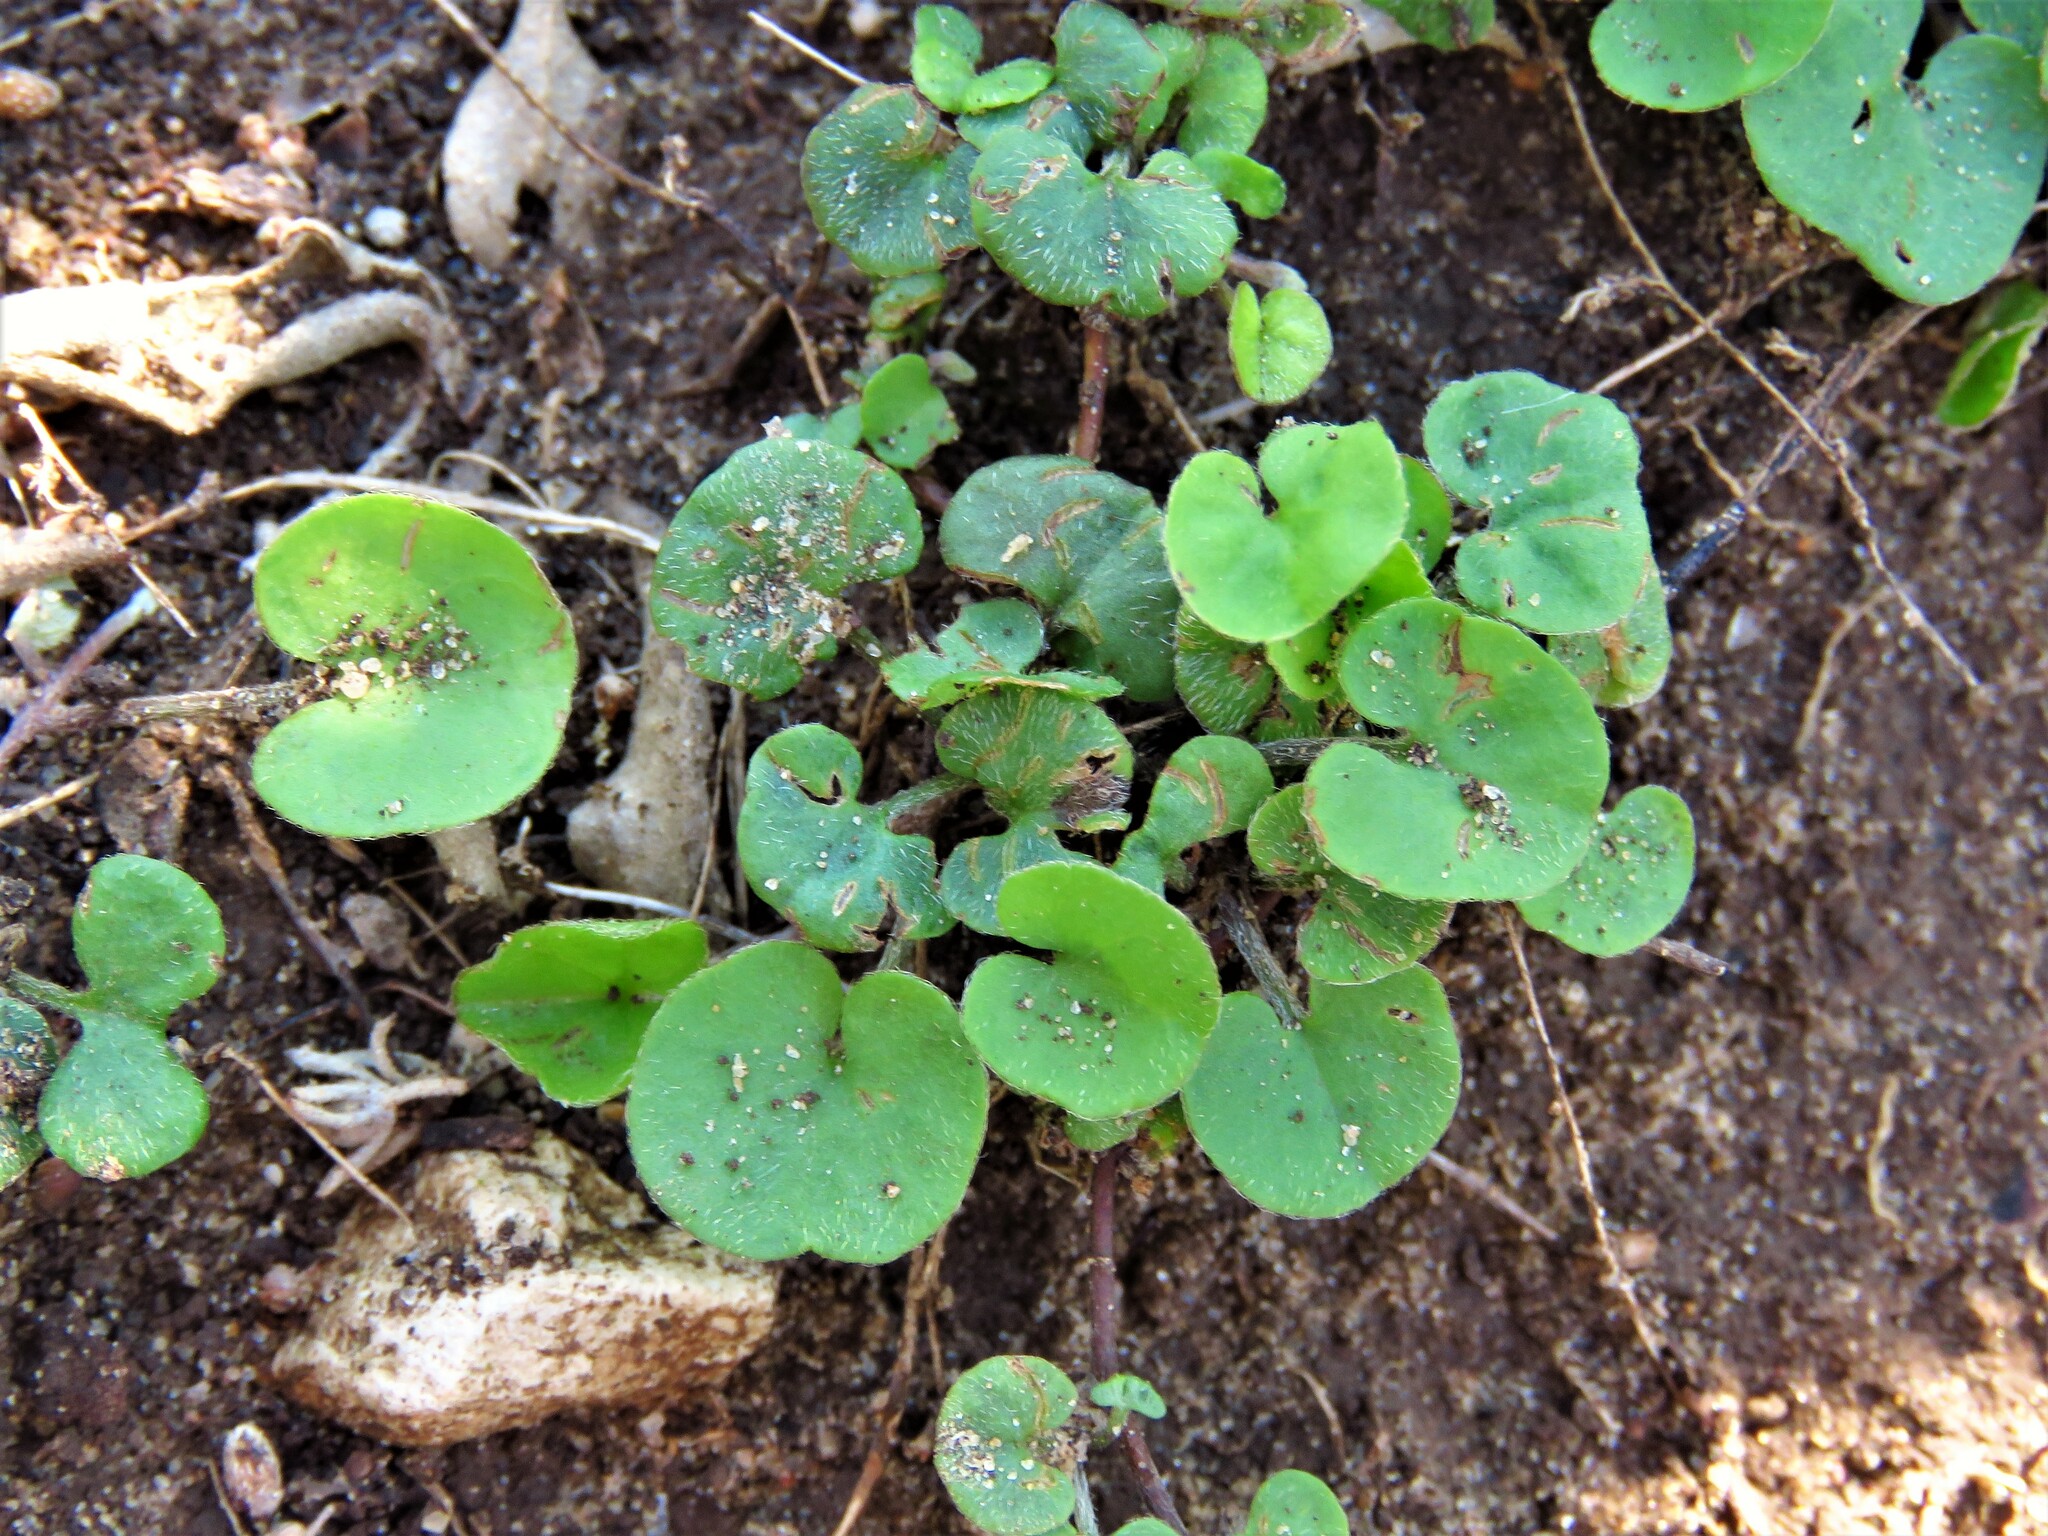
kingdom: Plantae
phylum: Tracheophyta
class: Magnoliopsida
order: Solanales
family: Convolvulaceae
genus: Dichondra
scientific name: Dichondra carolinensis
